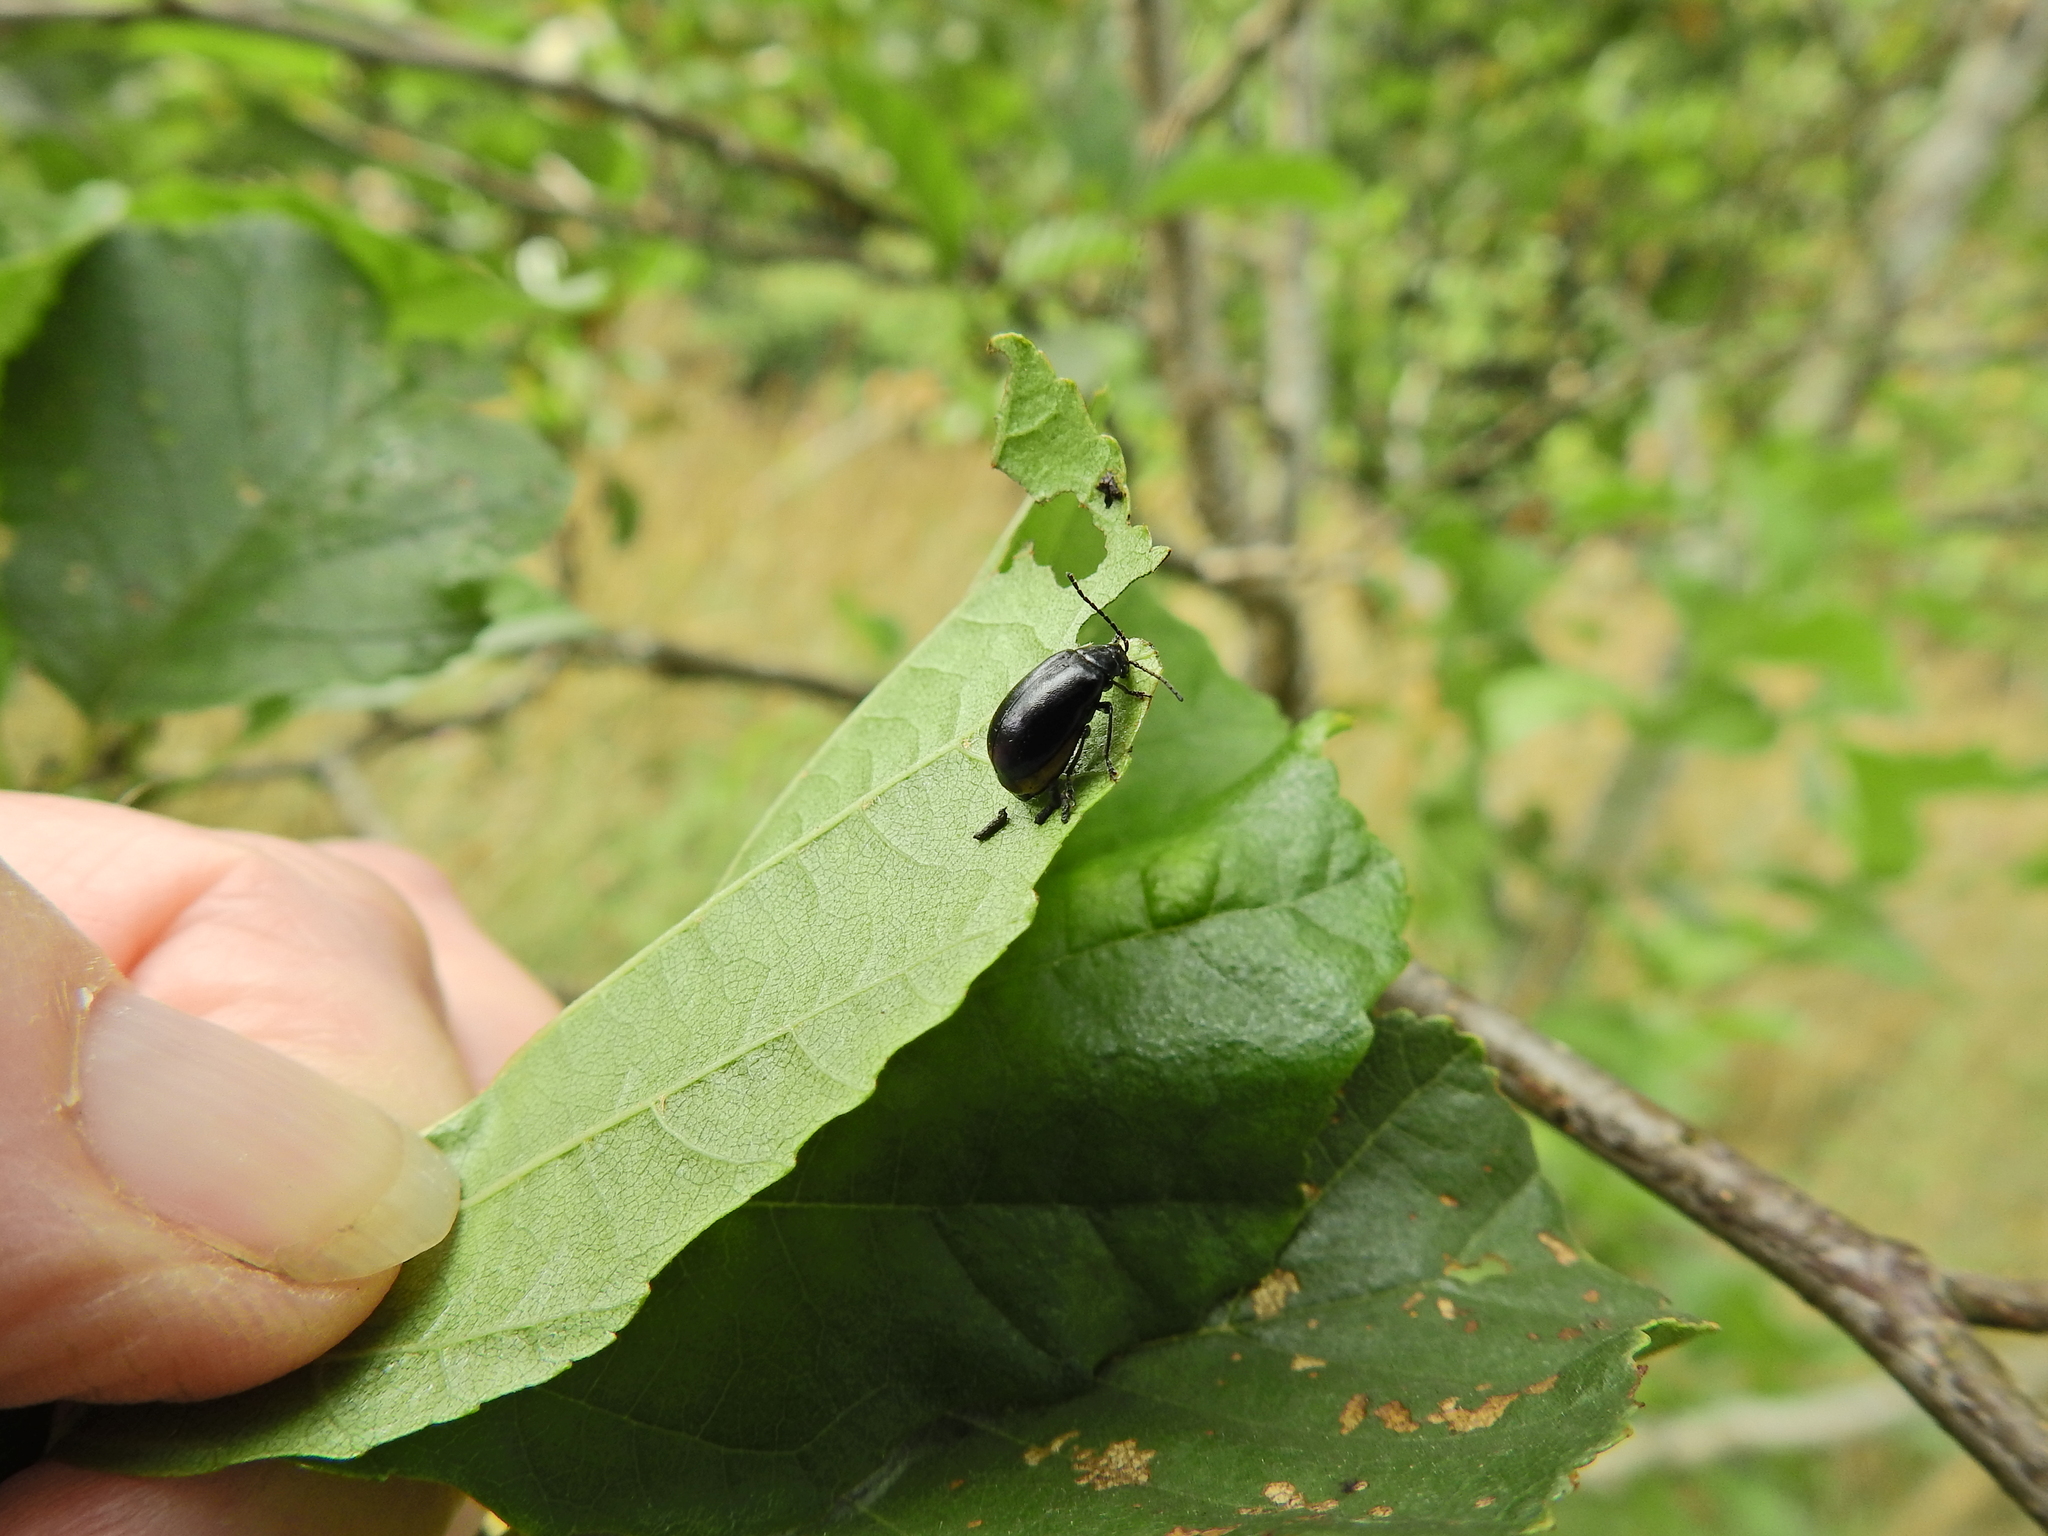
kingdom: Animalia
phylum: Arthropoda
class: Insecta
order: Coleoptera
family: Chrysomelidae
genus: Agelastica
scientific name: Agelastica alni
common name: Alder leaf beetle
